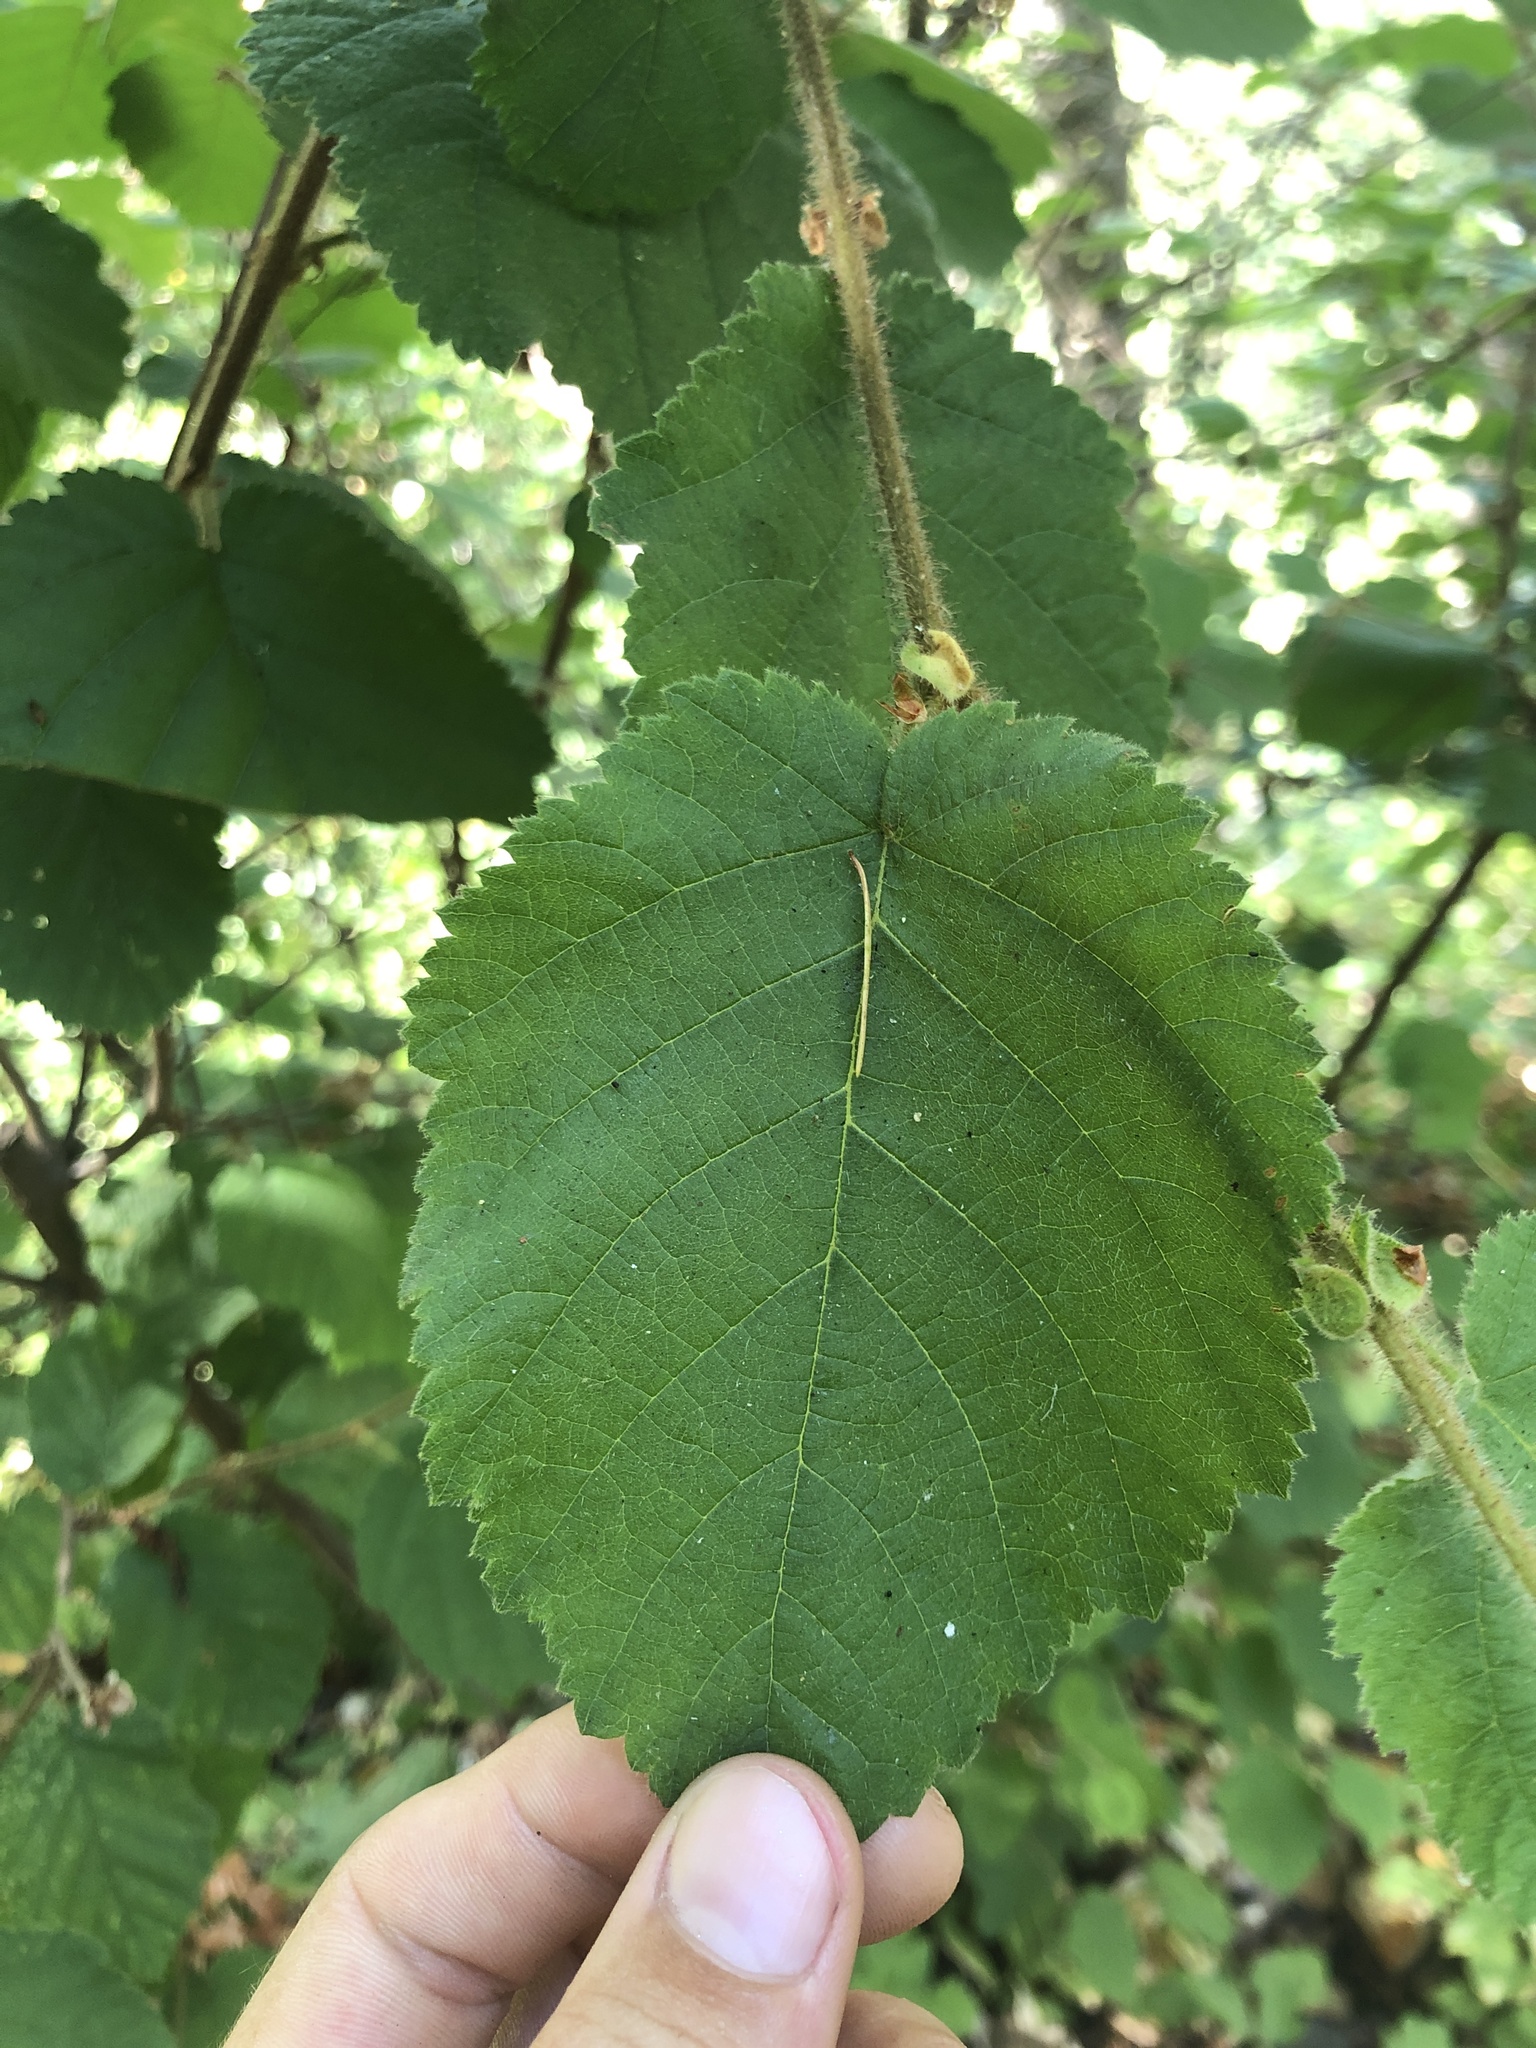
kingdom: Plantae
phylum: Tracheophyta
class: Magnoliopsida
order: Fagales
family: Betulaceae
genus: Corylus
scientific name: Corylus cornuta
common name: Beaked hazel
